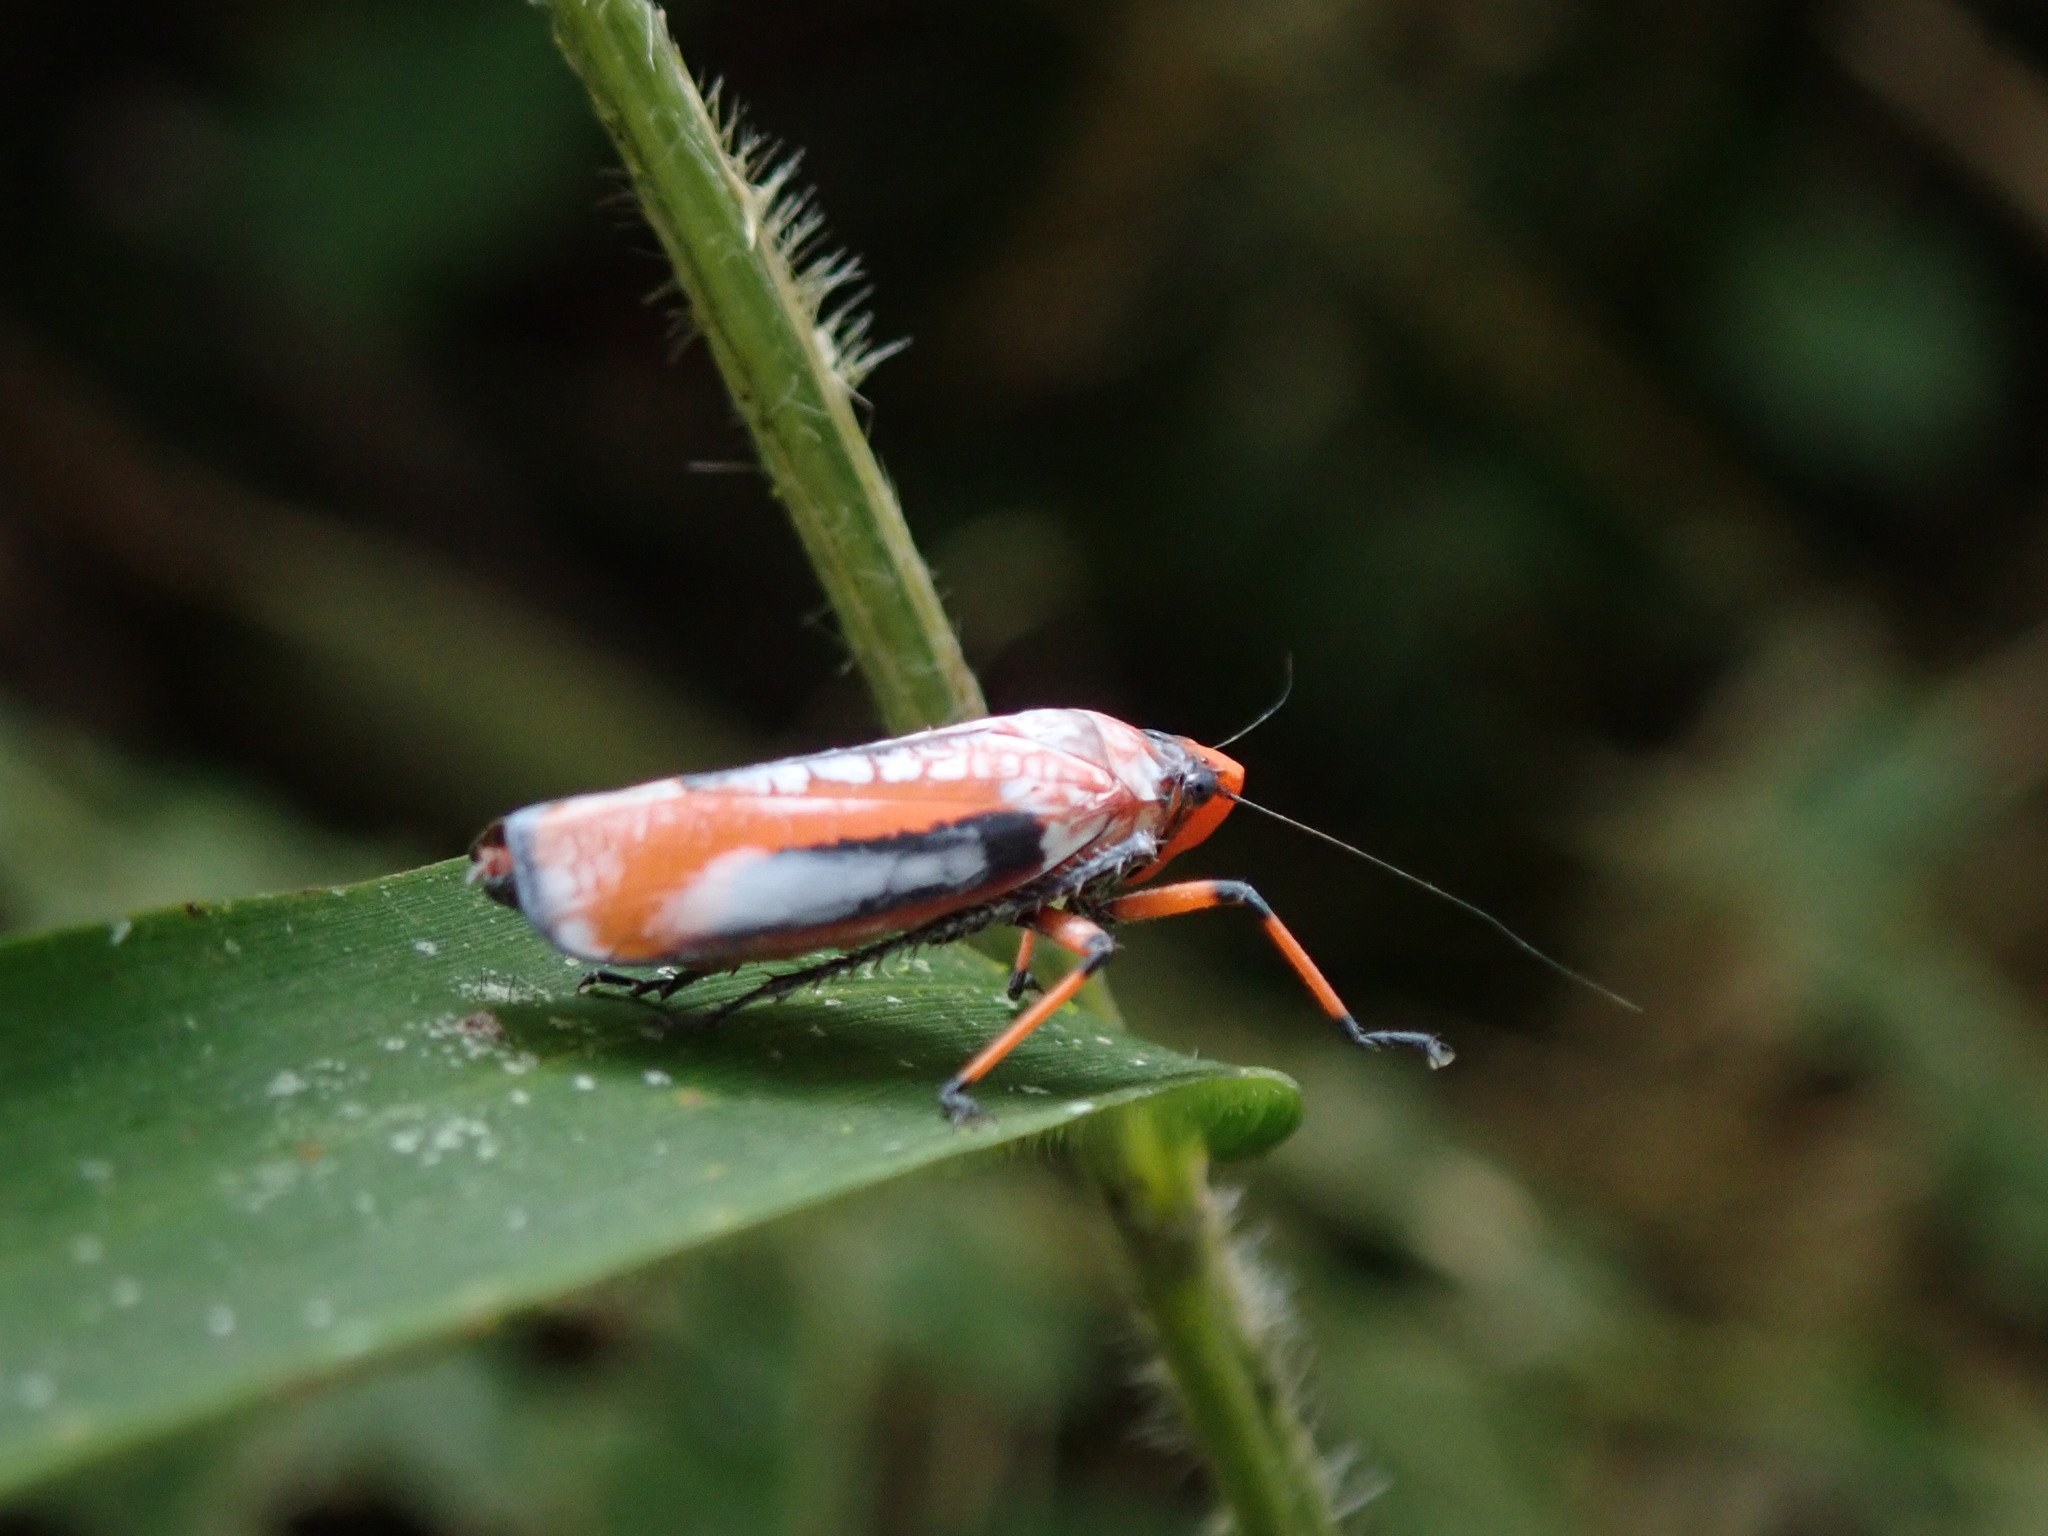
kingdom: Animalia
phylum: Arthropoda
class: Insecta
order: Hemiptera
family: Cicadellidae
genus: Onega
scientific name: Onega avella
